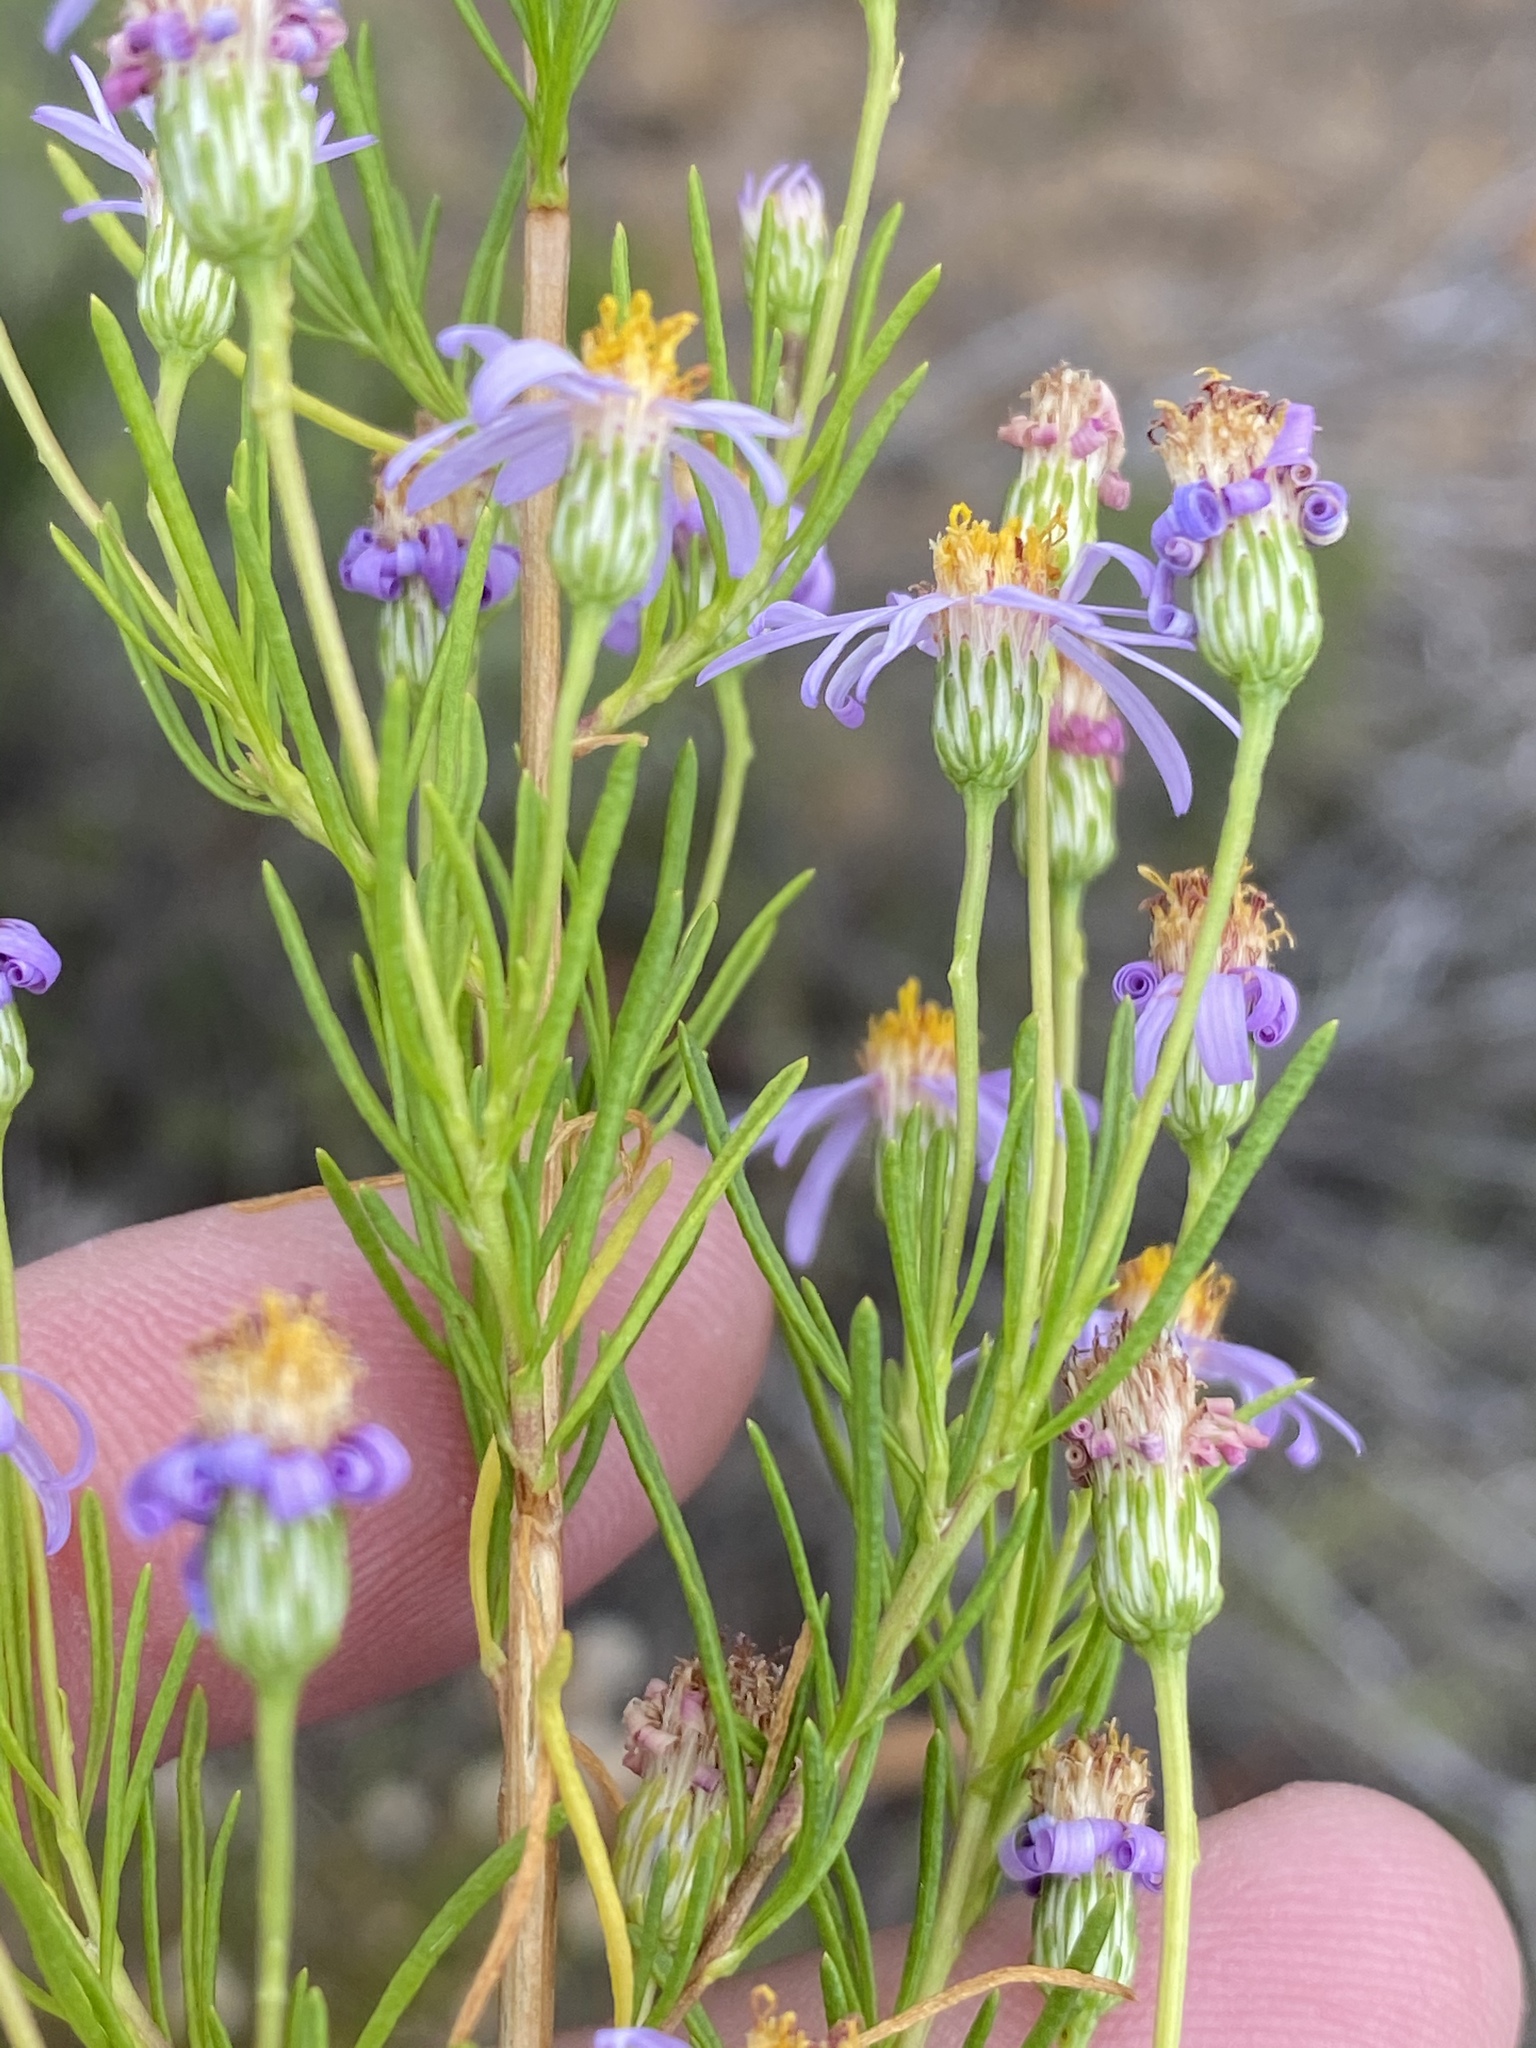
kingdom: Plantae
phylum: Tracheophyta
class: Magnoliopsida
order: Asterales
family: Asteraceae
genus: Felicia
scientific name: Felicia filifolia
